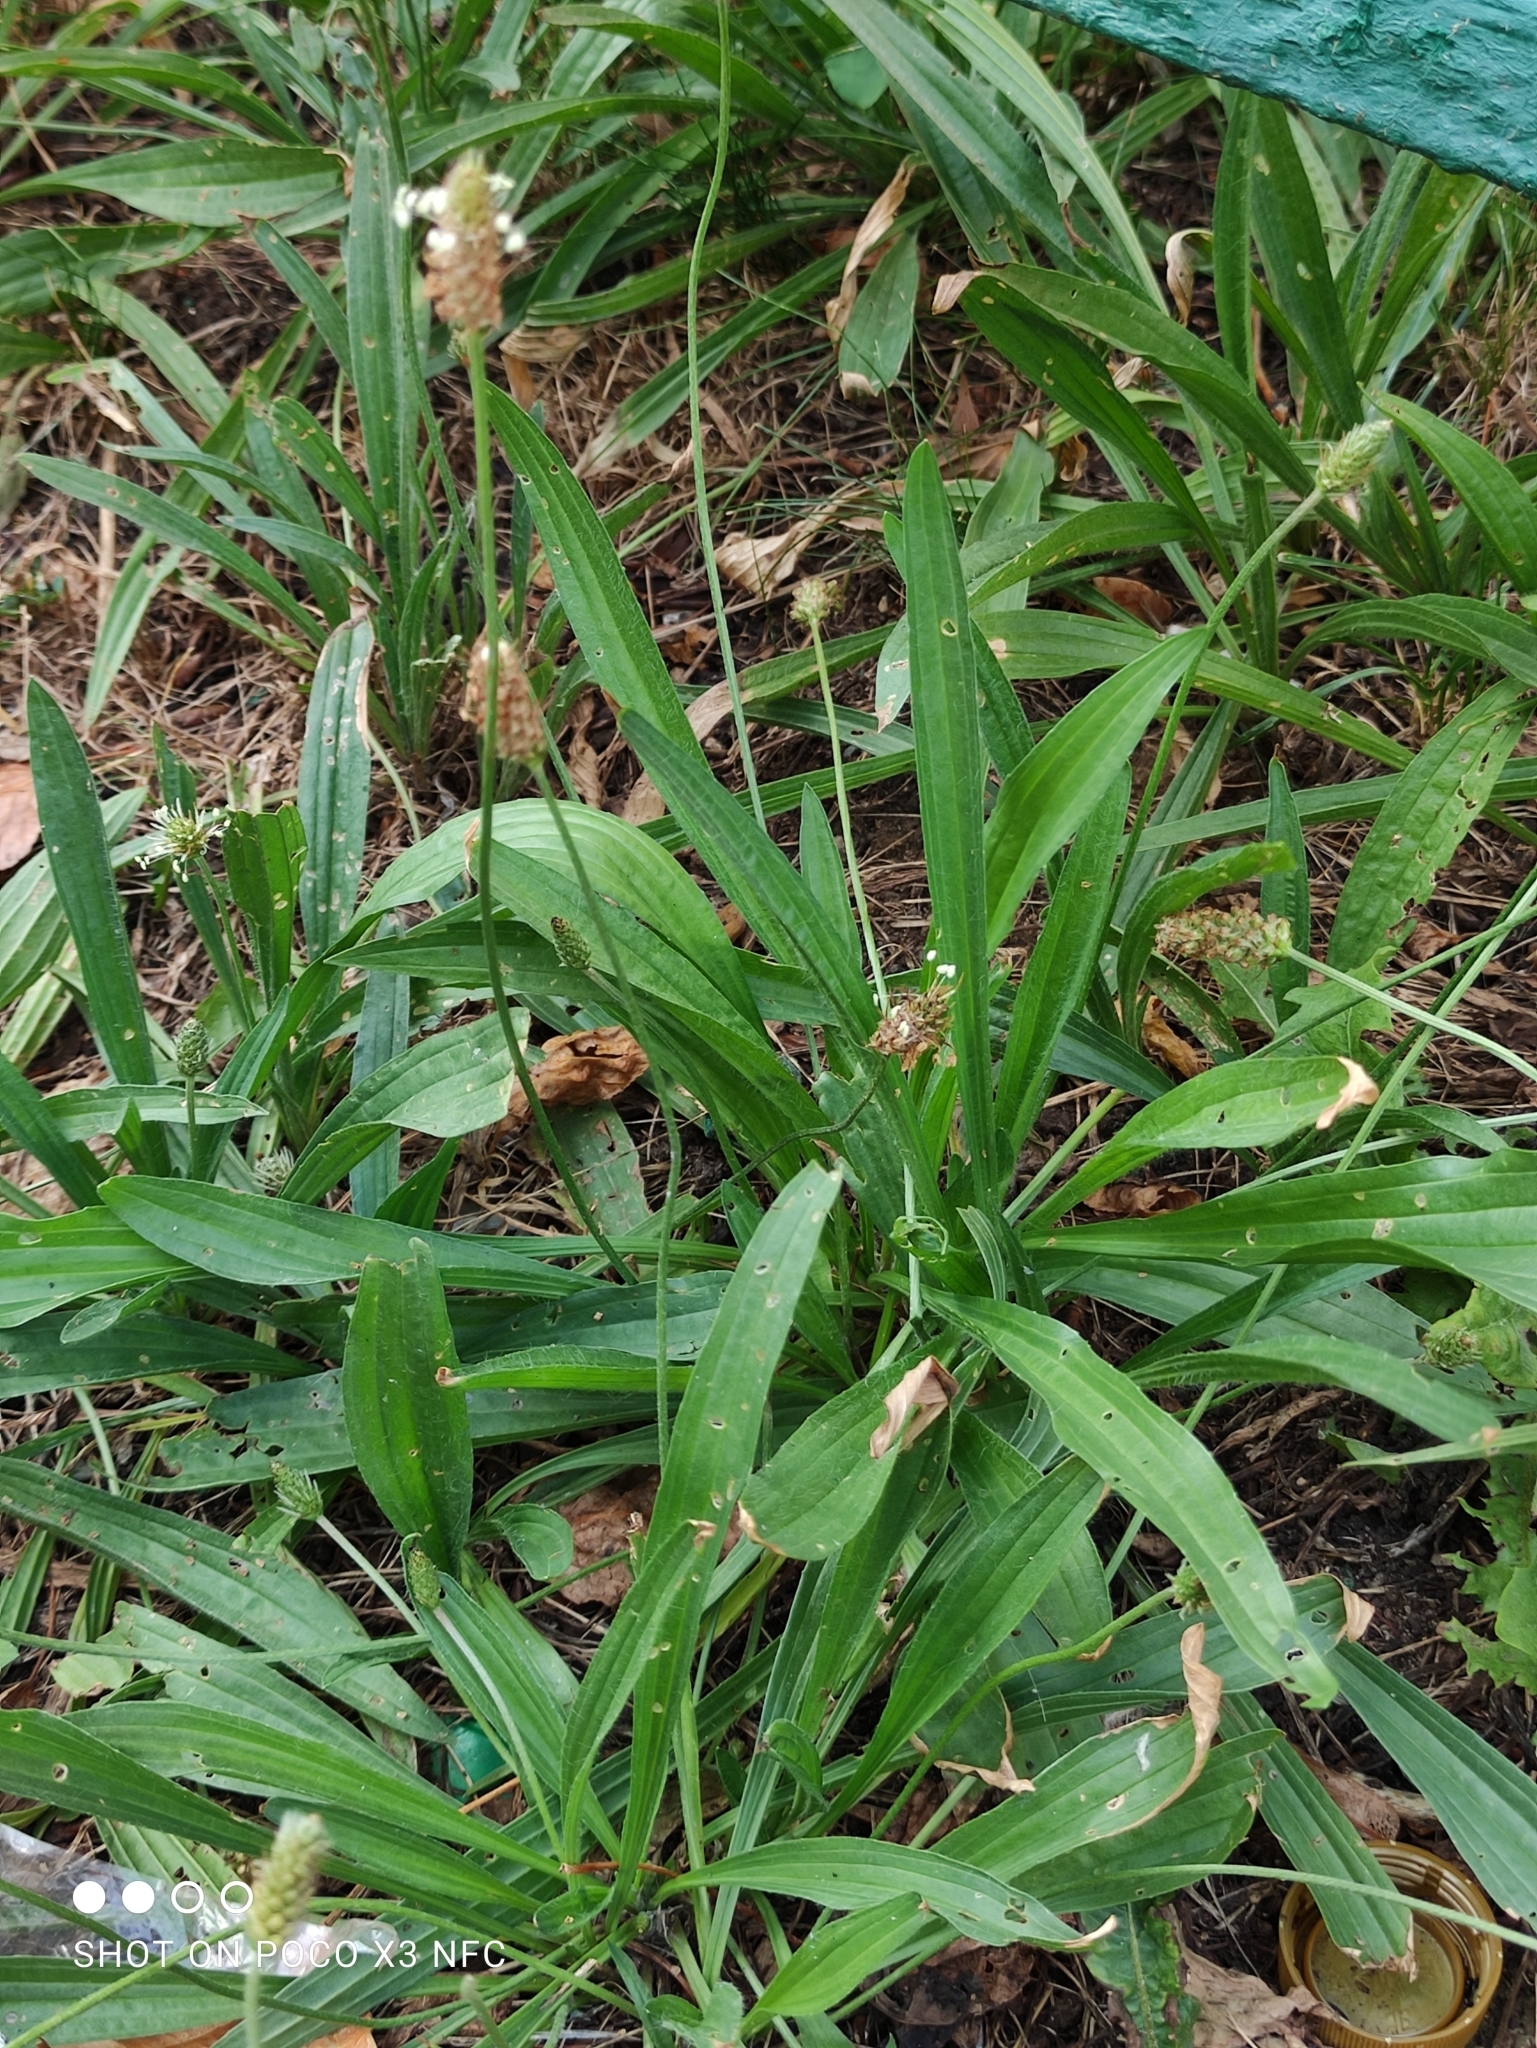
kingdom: Plantae
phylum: Tracheophyta
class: Magnoliopsida
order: Lamiales
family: Plantaginaceae
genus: Plantago
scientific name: Plantago lanceolata
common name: Ribwort plantain
